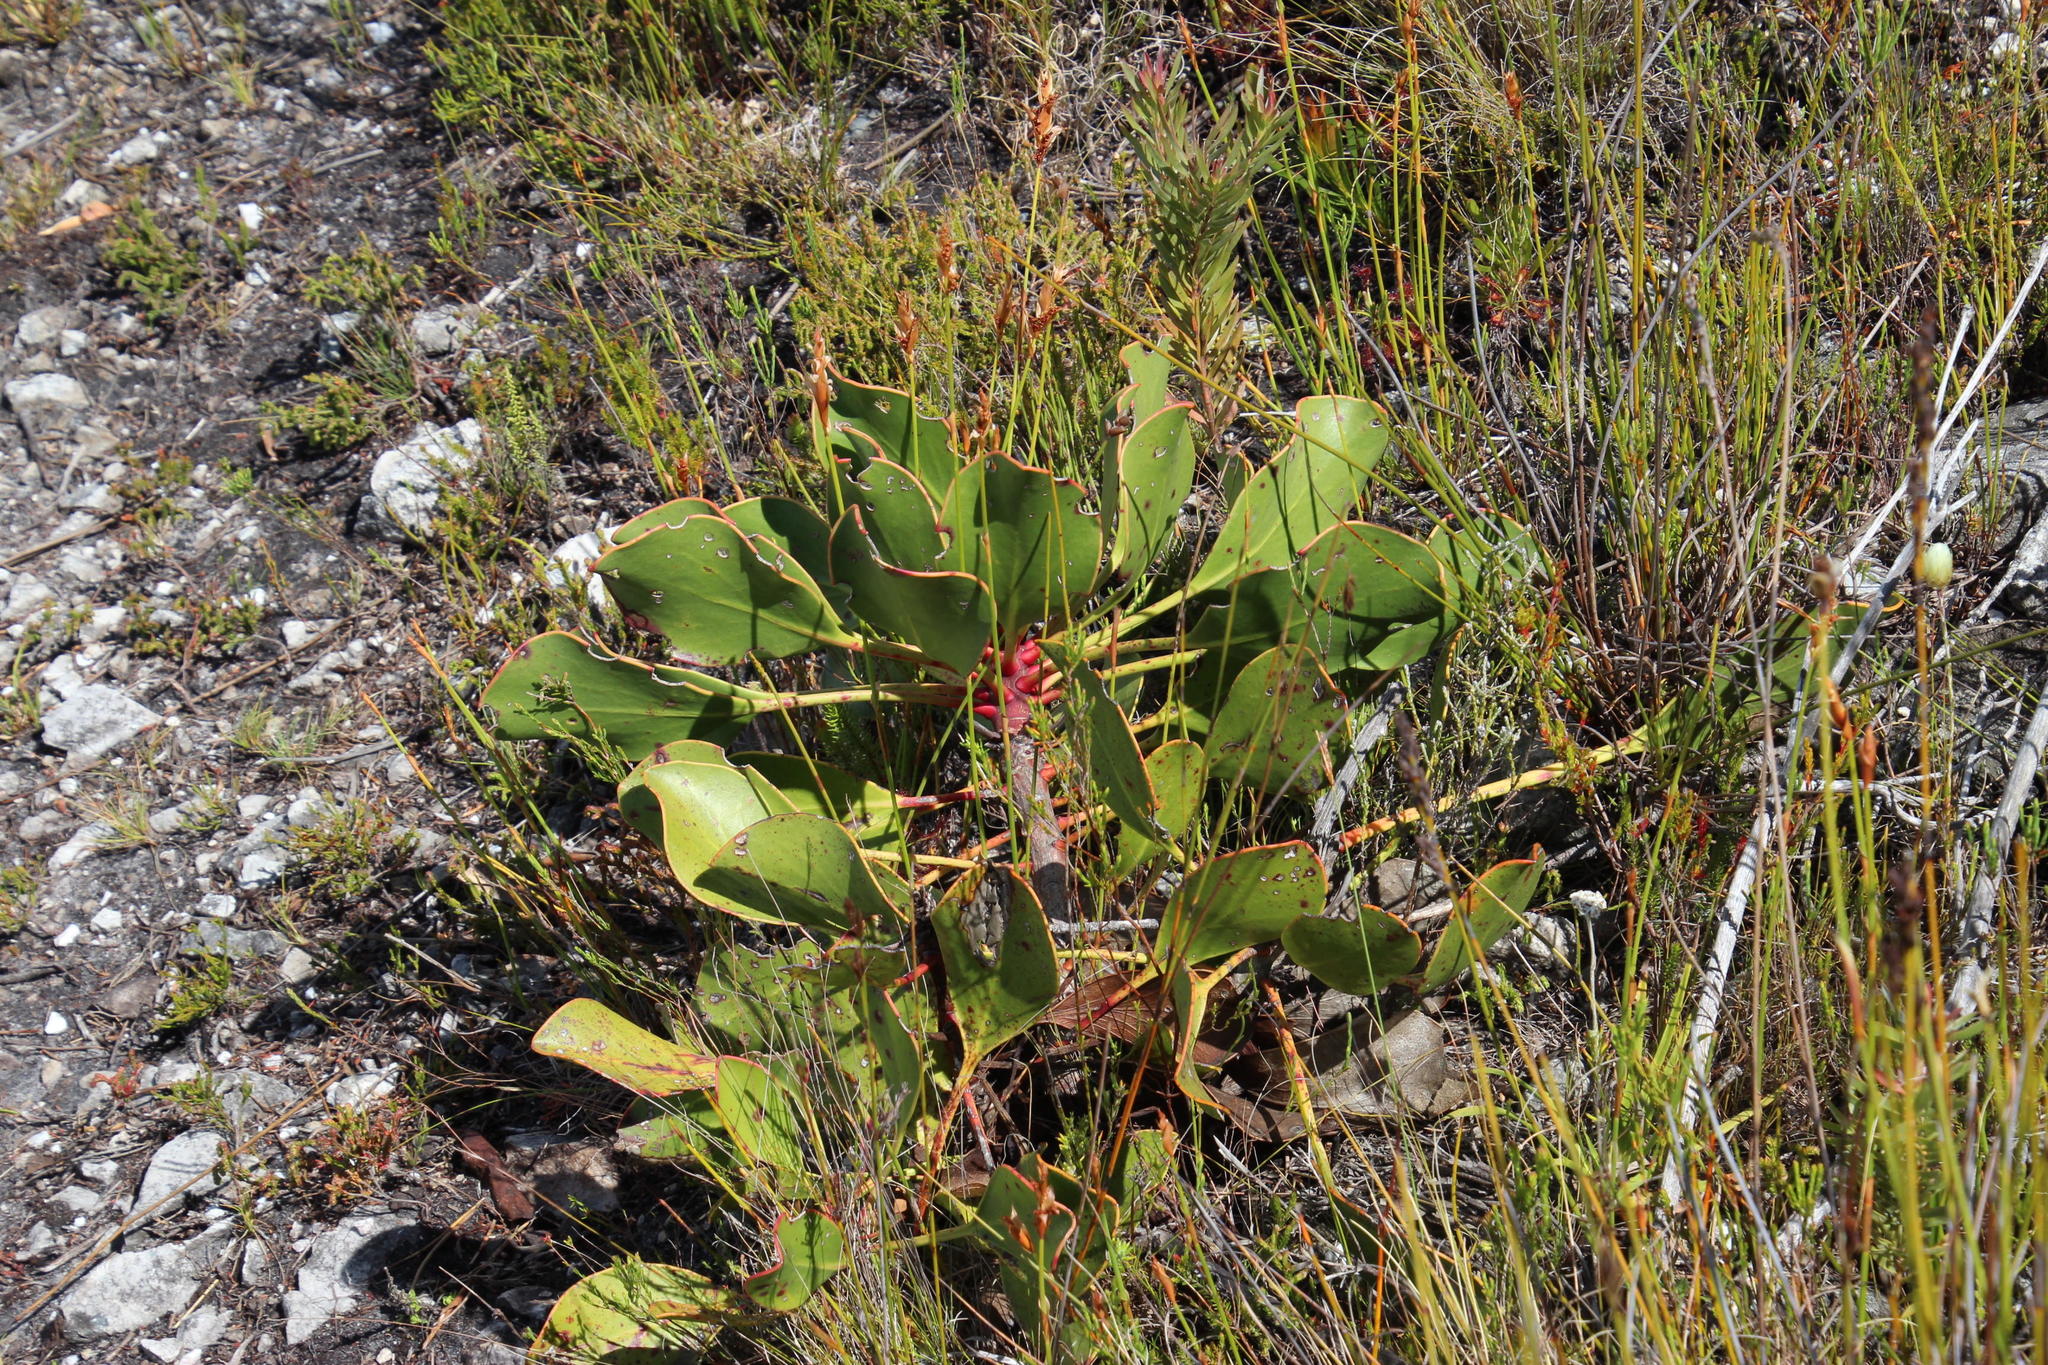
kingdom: Plantae
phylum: Tracheophyta
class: Magnoliopsida
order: Proteales
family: Proteaceae
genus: Protea
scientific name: Protea cynaroides
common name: King protea
